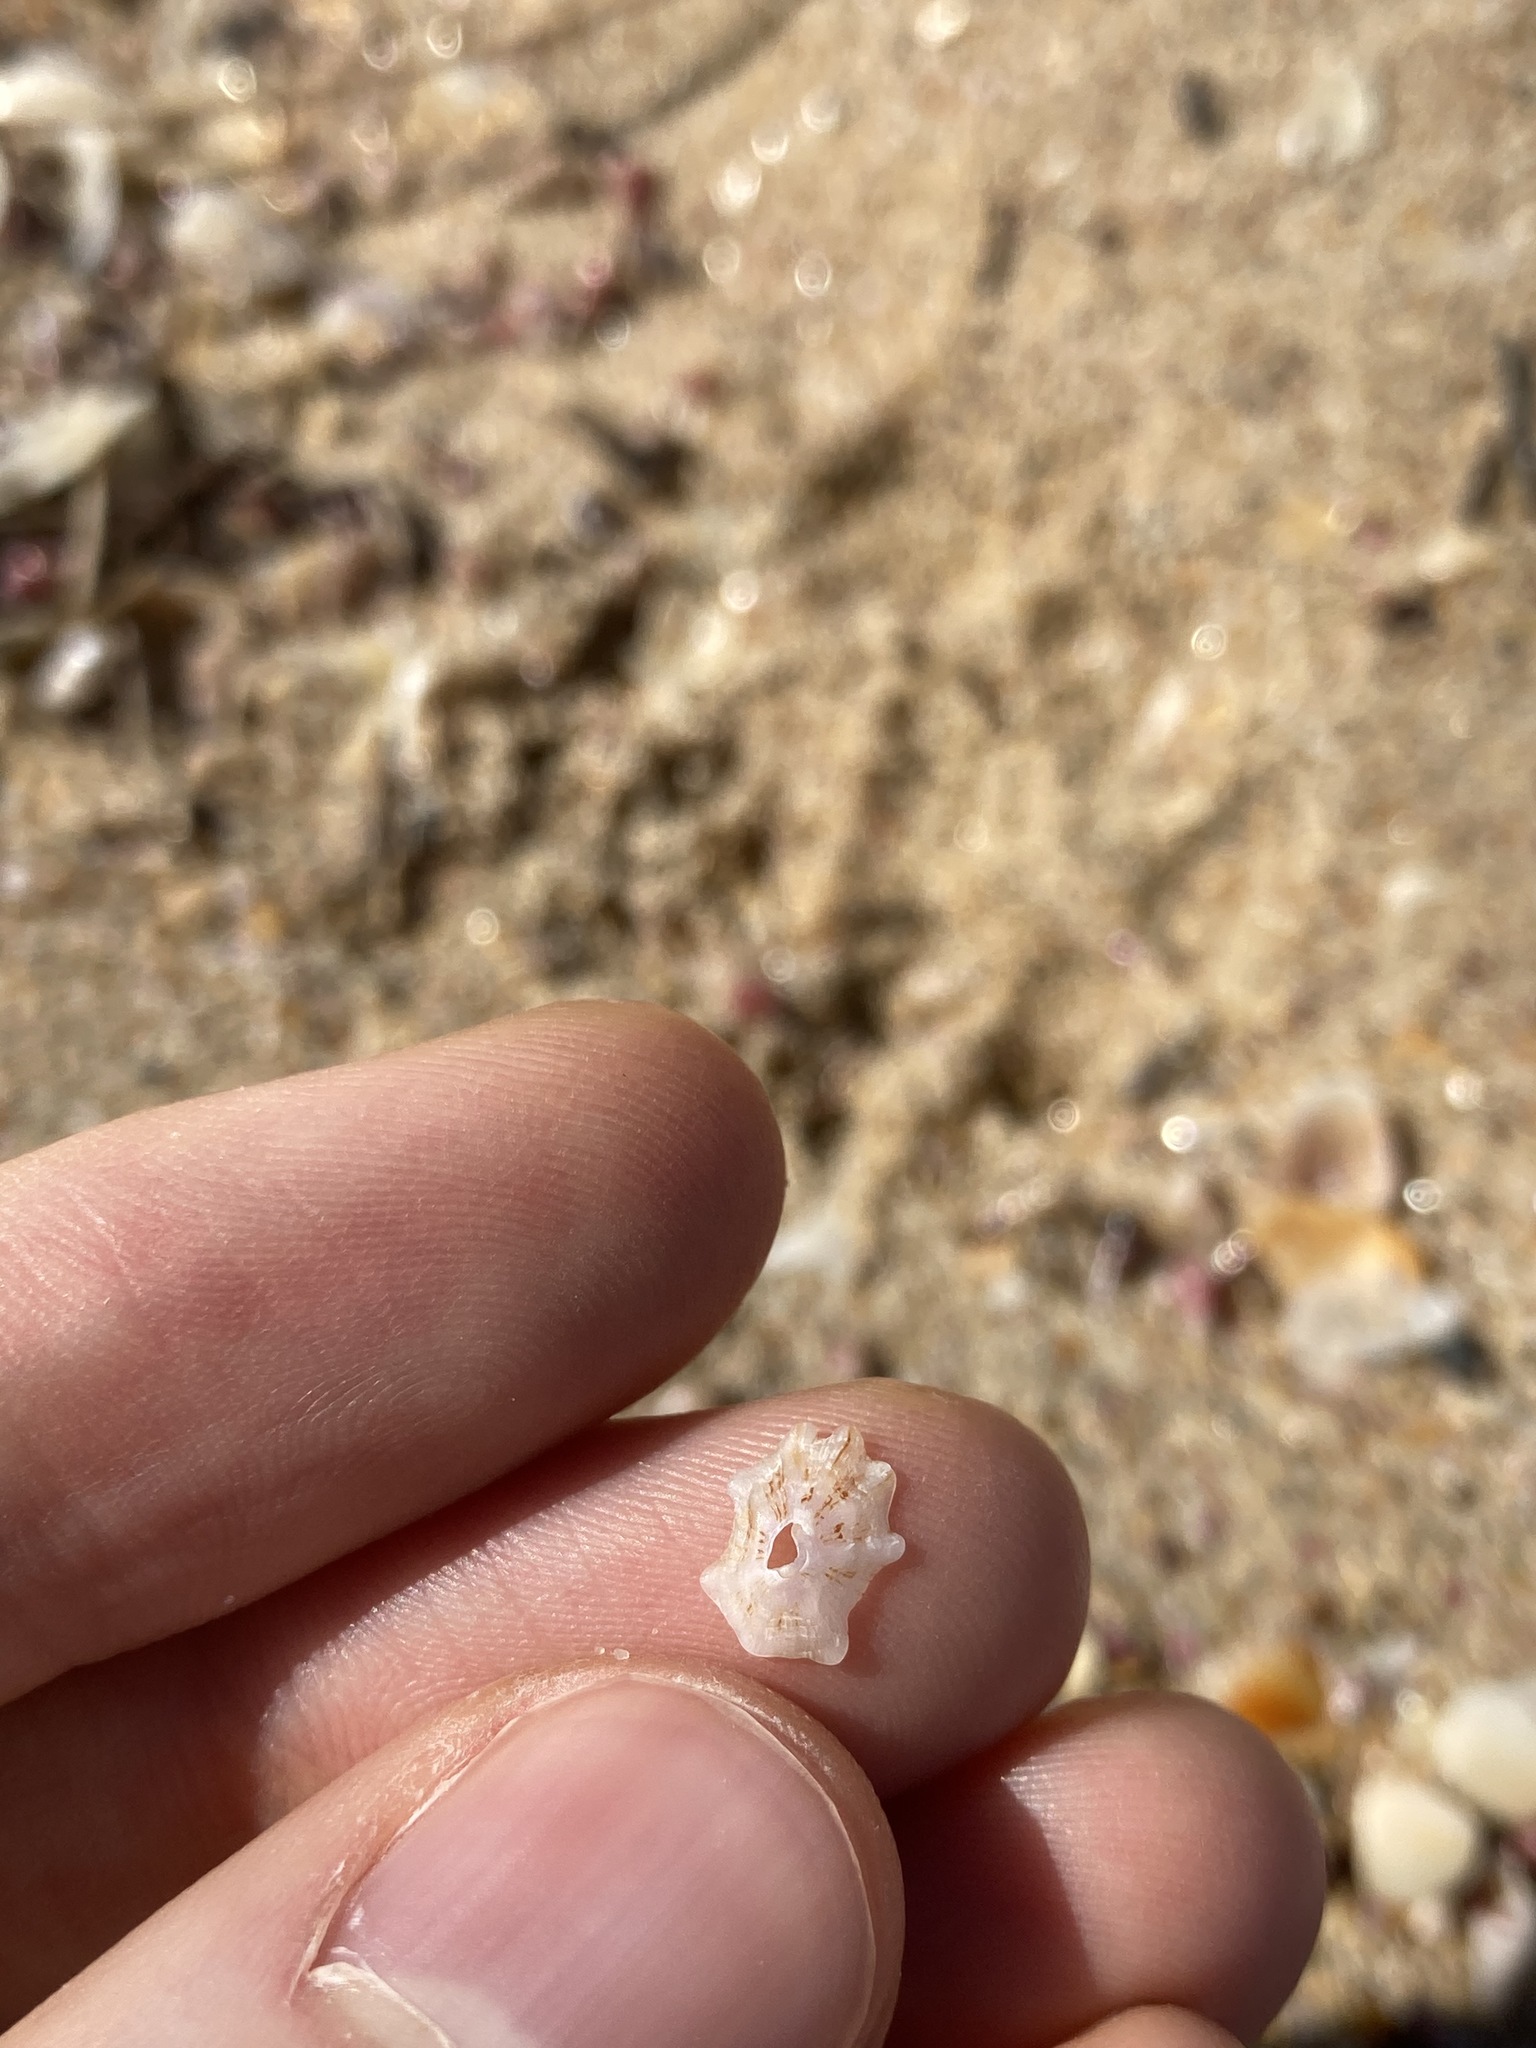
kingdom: Animalia
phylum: Mollusca
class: Gastropoda
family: Patellidae
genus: Scutellastra
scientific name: Scutellastra chapmani
